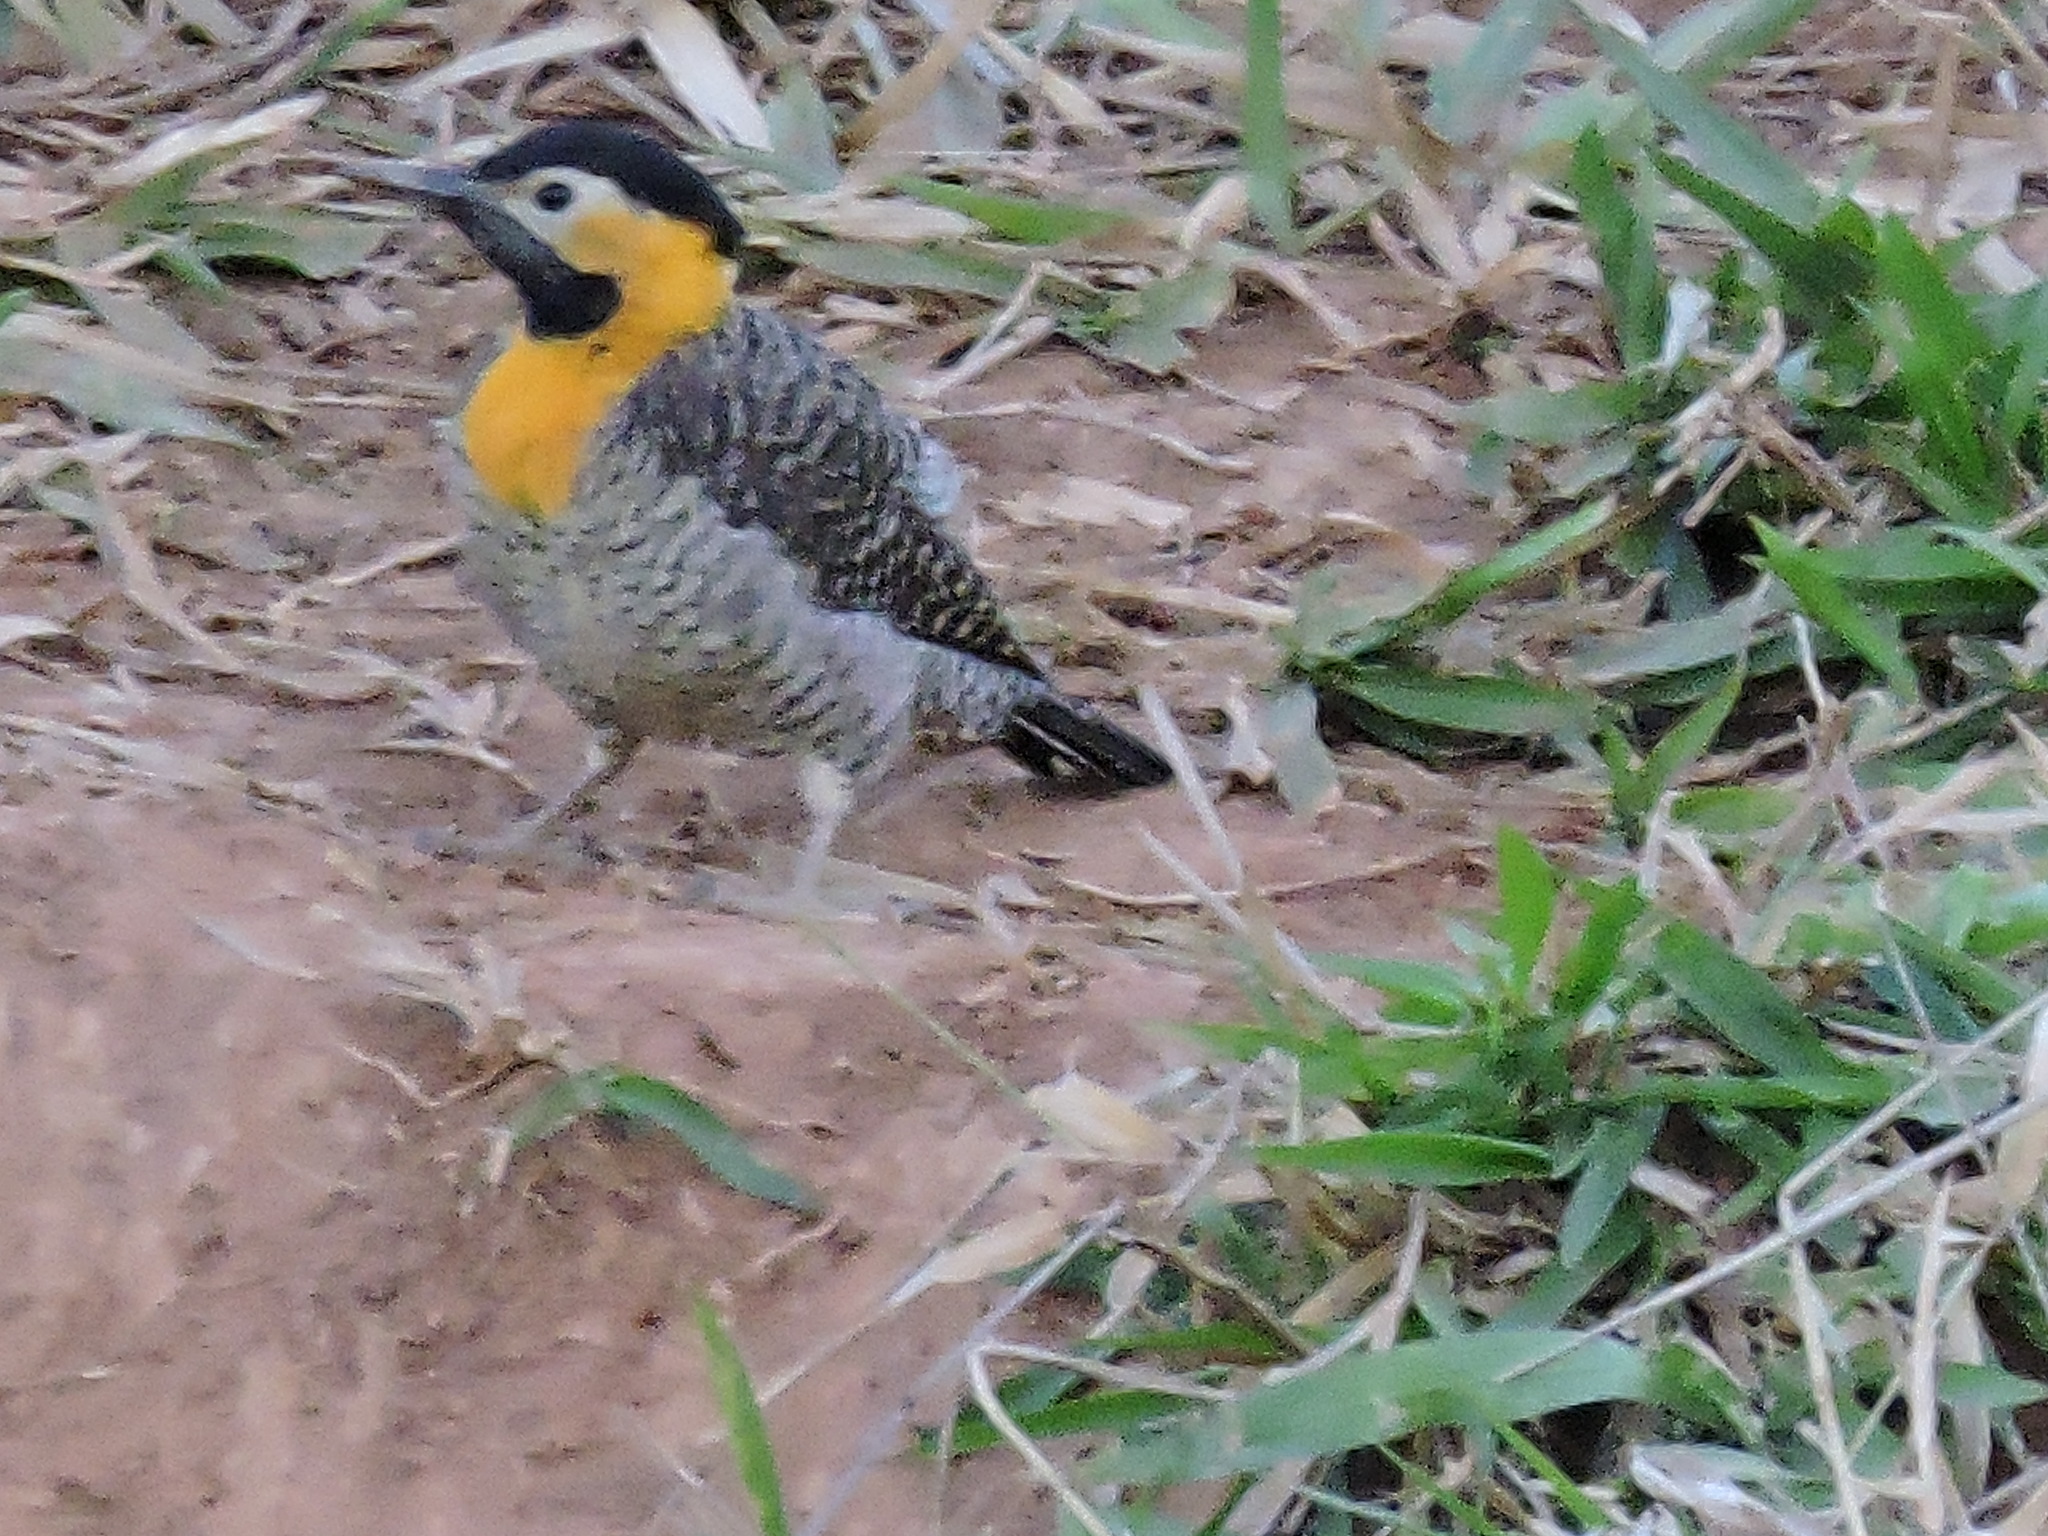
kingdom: Animalia
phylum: Chordata
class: Aves
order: Piciformes
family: Picidae
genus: Colaptes
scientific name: Colaptes campestris
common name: Campo flicker
